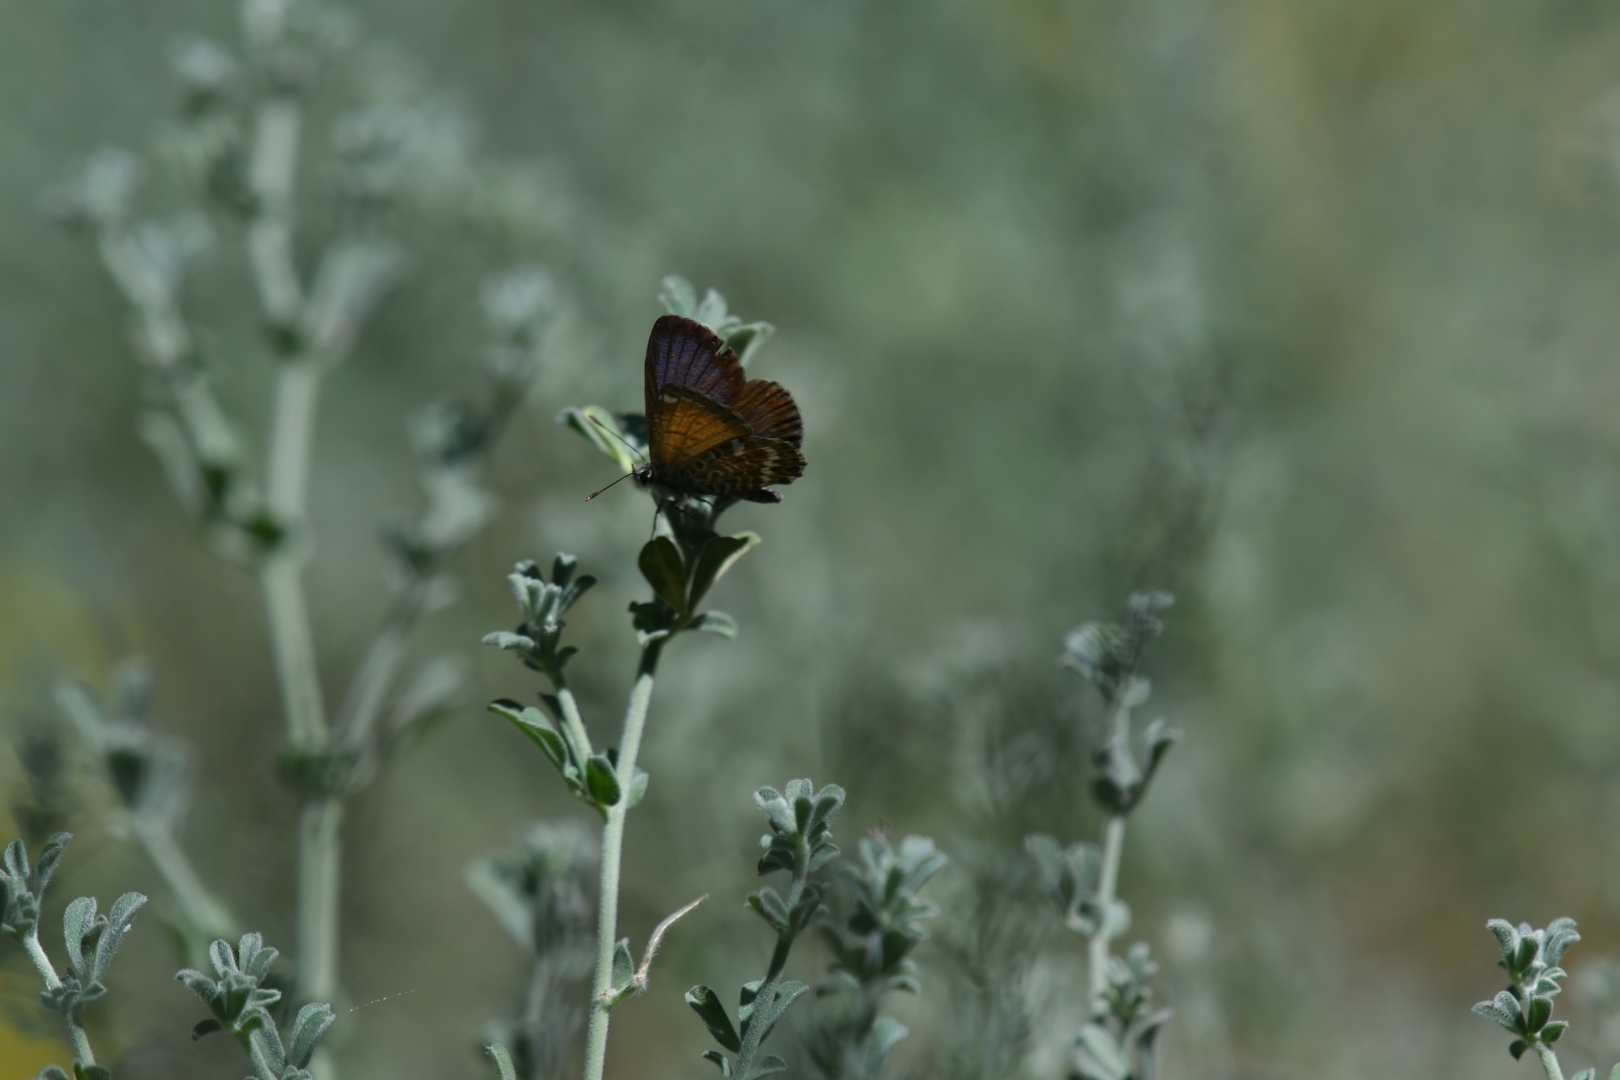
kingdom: Animalia
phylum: Arthropoda
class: Insecta
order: Lepidoptera
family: Lycaenidae
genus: Cyclyrius
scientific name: Cyclyrius webbianus
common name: Canary blue
